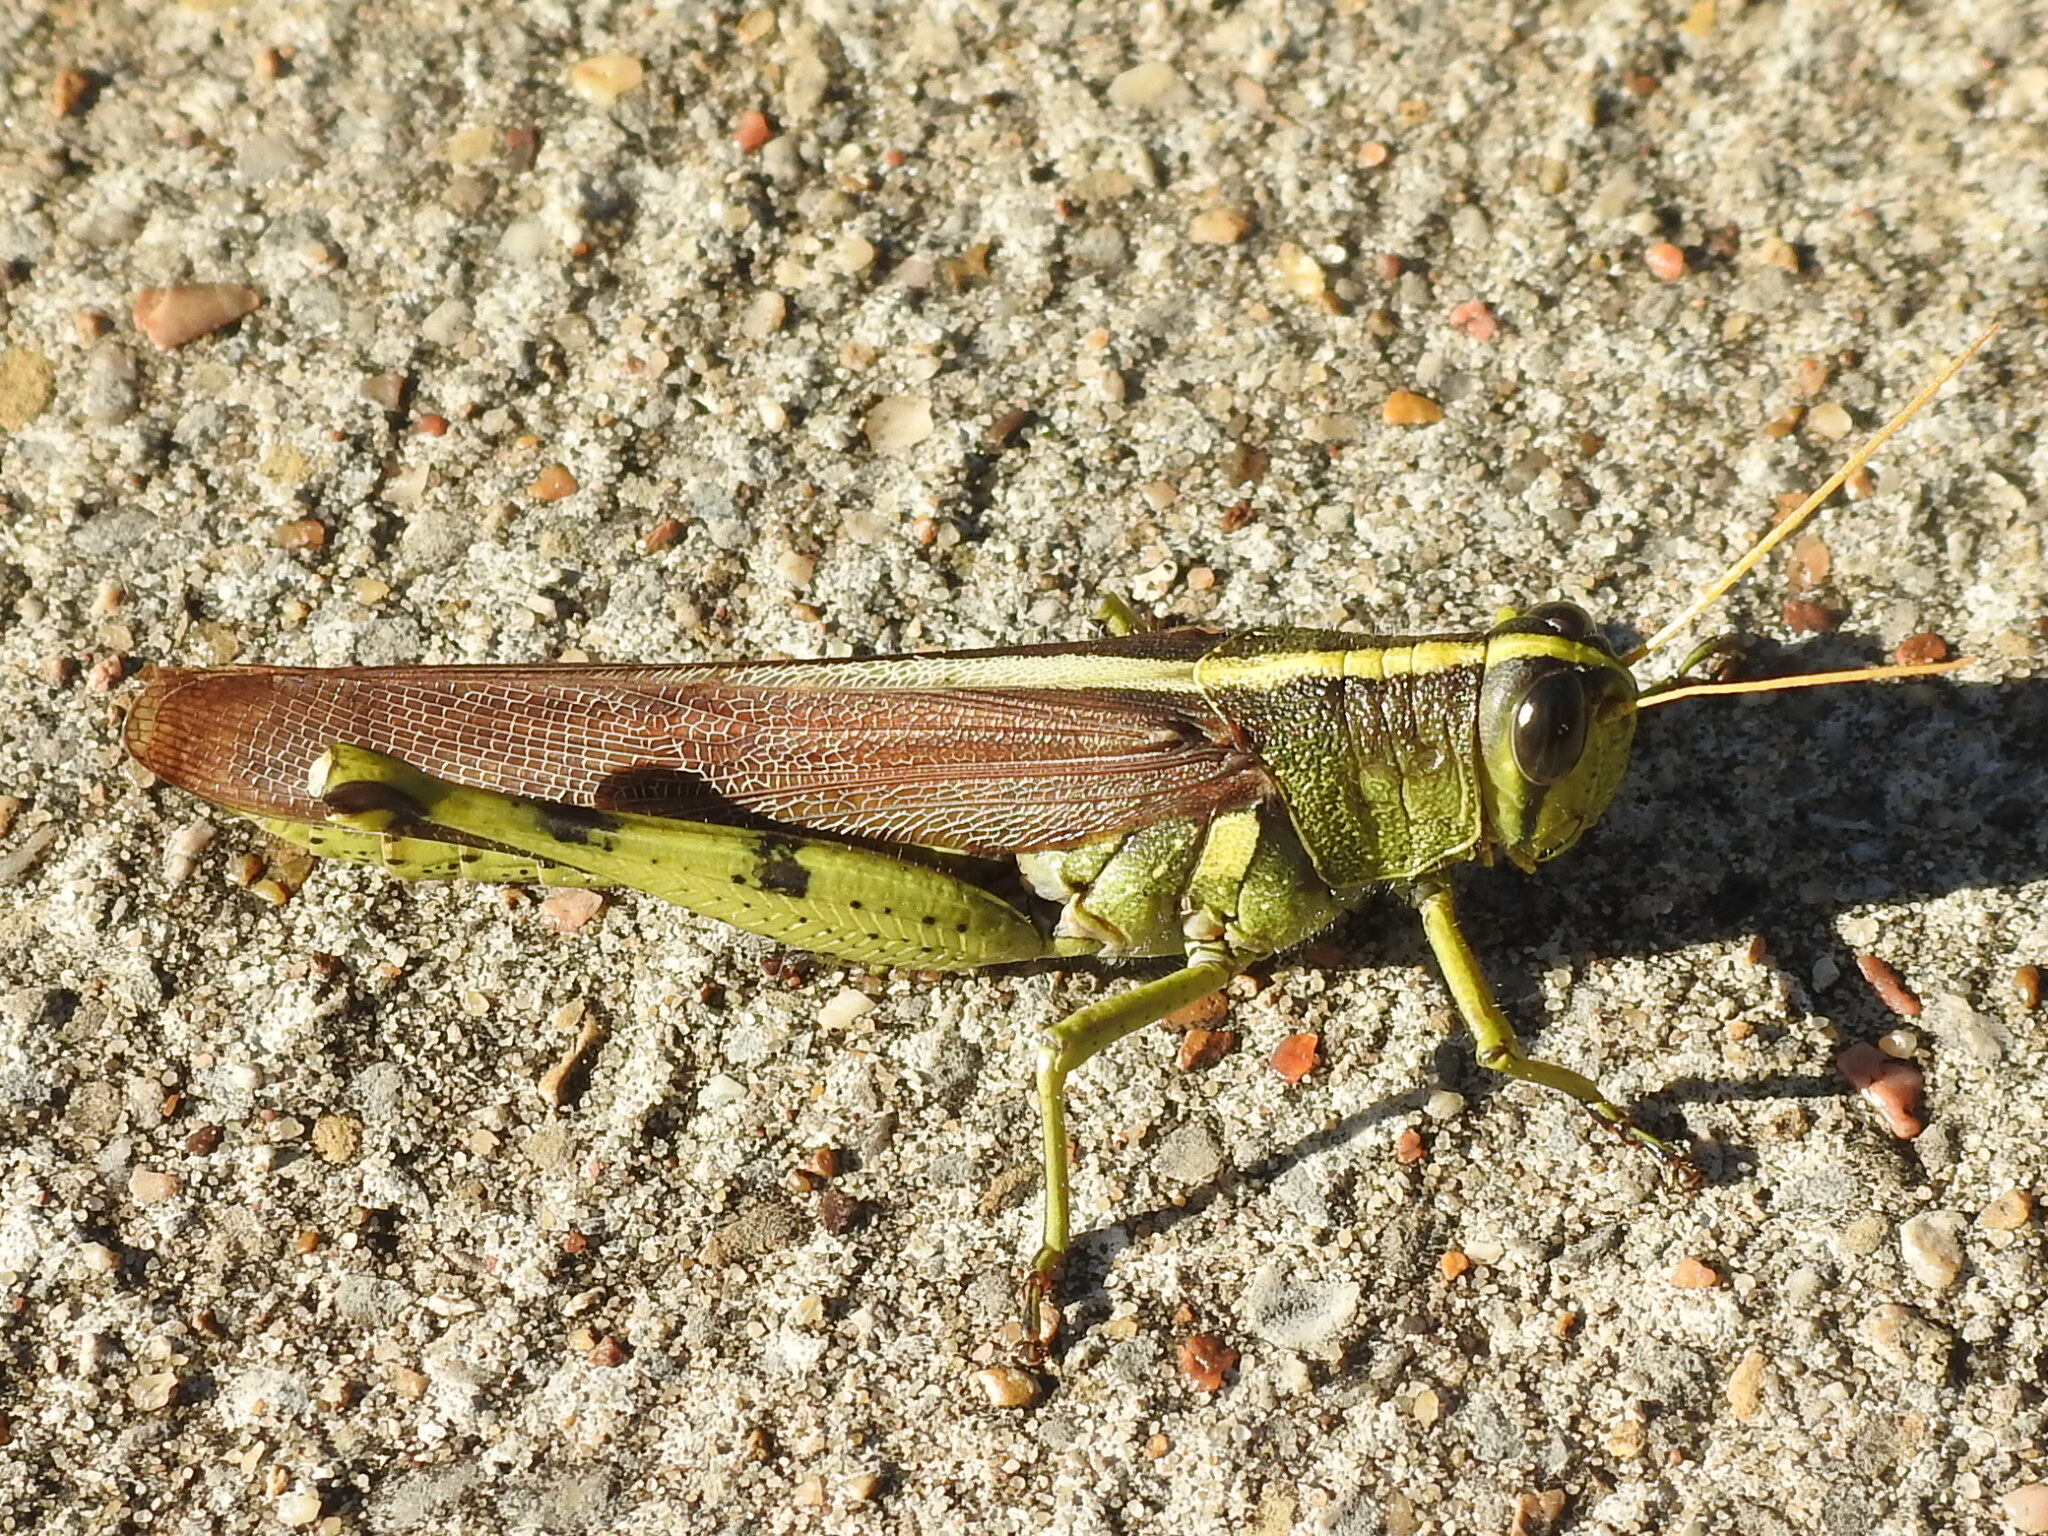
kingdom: Animalia
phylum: Arthropoda
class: Insecta
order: Orthoptera
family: Acrididae
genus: Schistocerca
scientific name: Schistocerca obscura
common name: Obscure bird grasshopper
